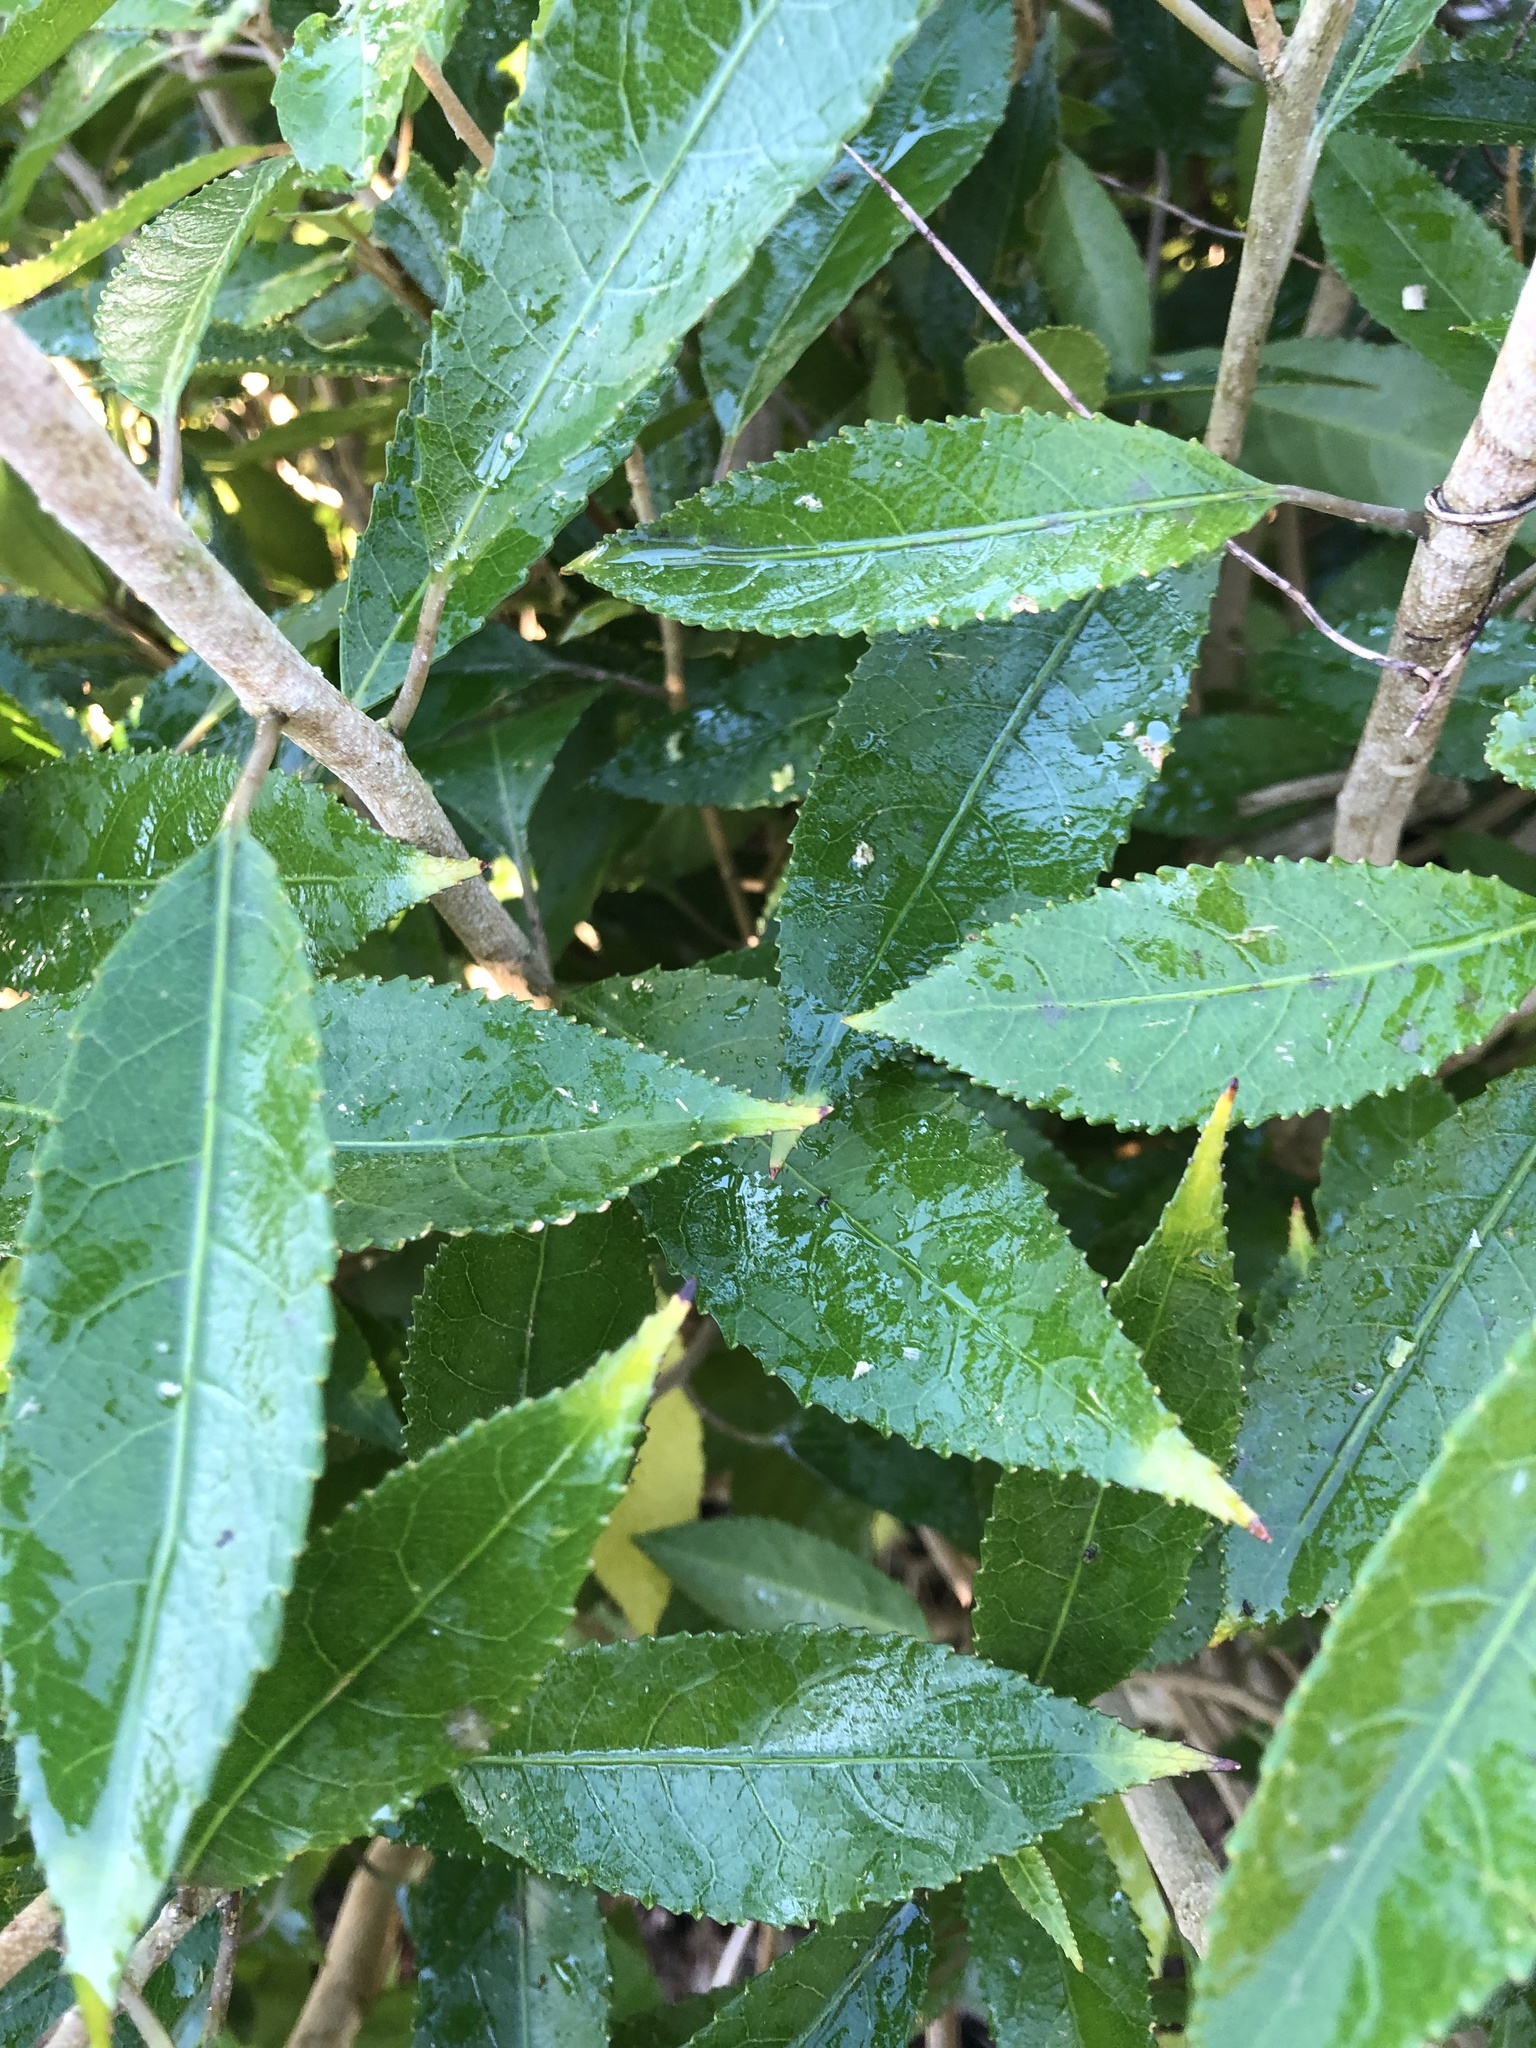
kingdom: Plantae
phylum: Tracheophyta
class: Magnoliopsida
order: Malpighiales
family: Violaceae
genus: Melicytus
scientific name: Melicytus ramiflorus
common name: Mahoe
